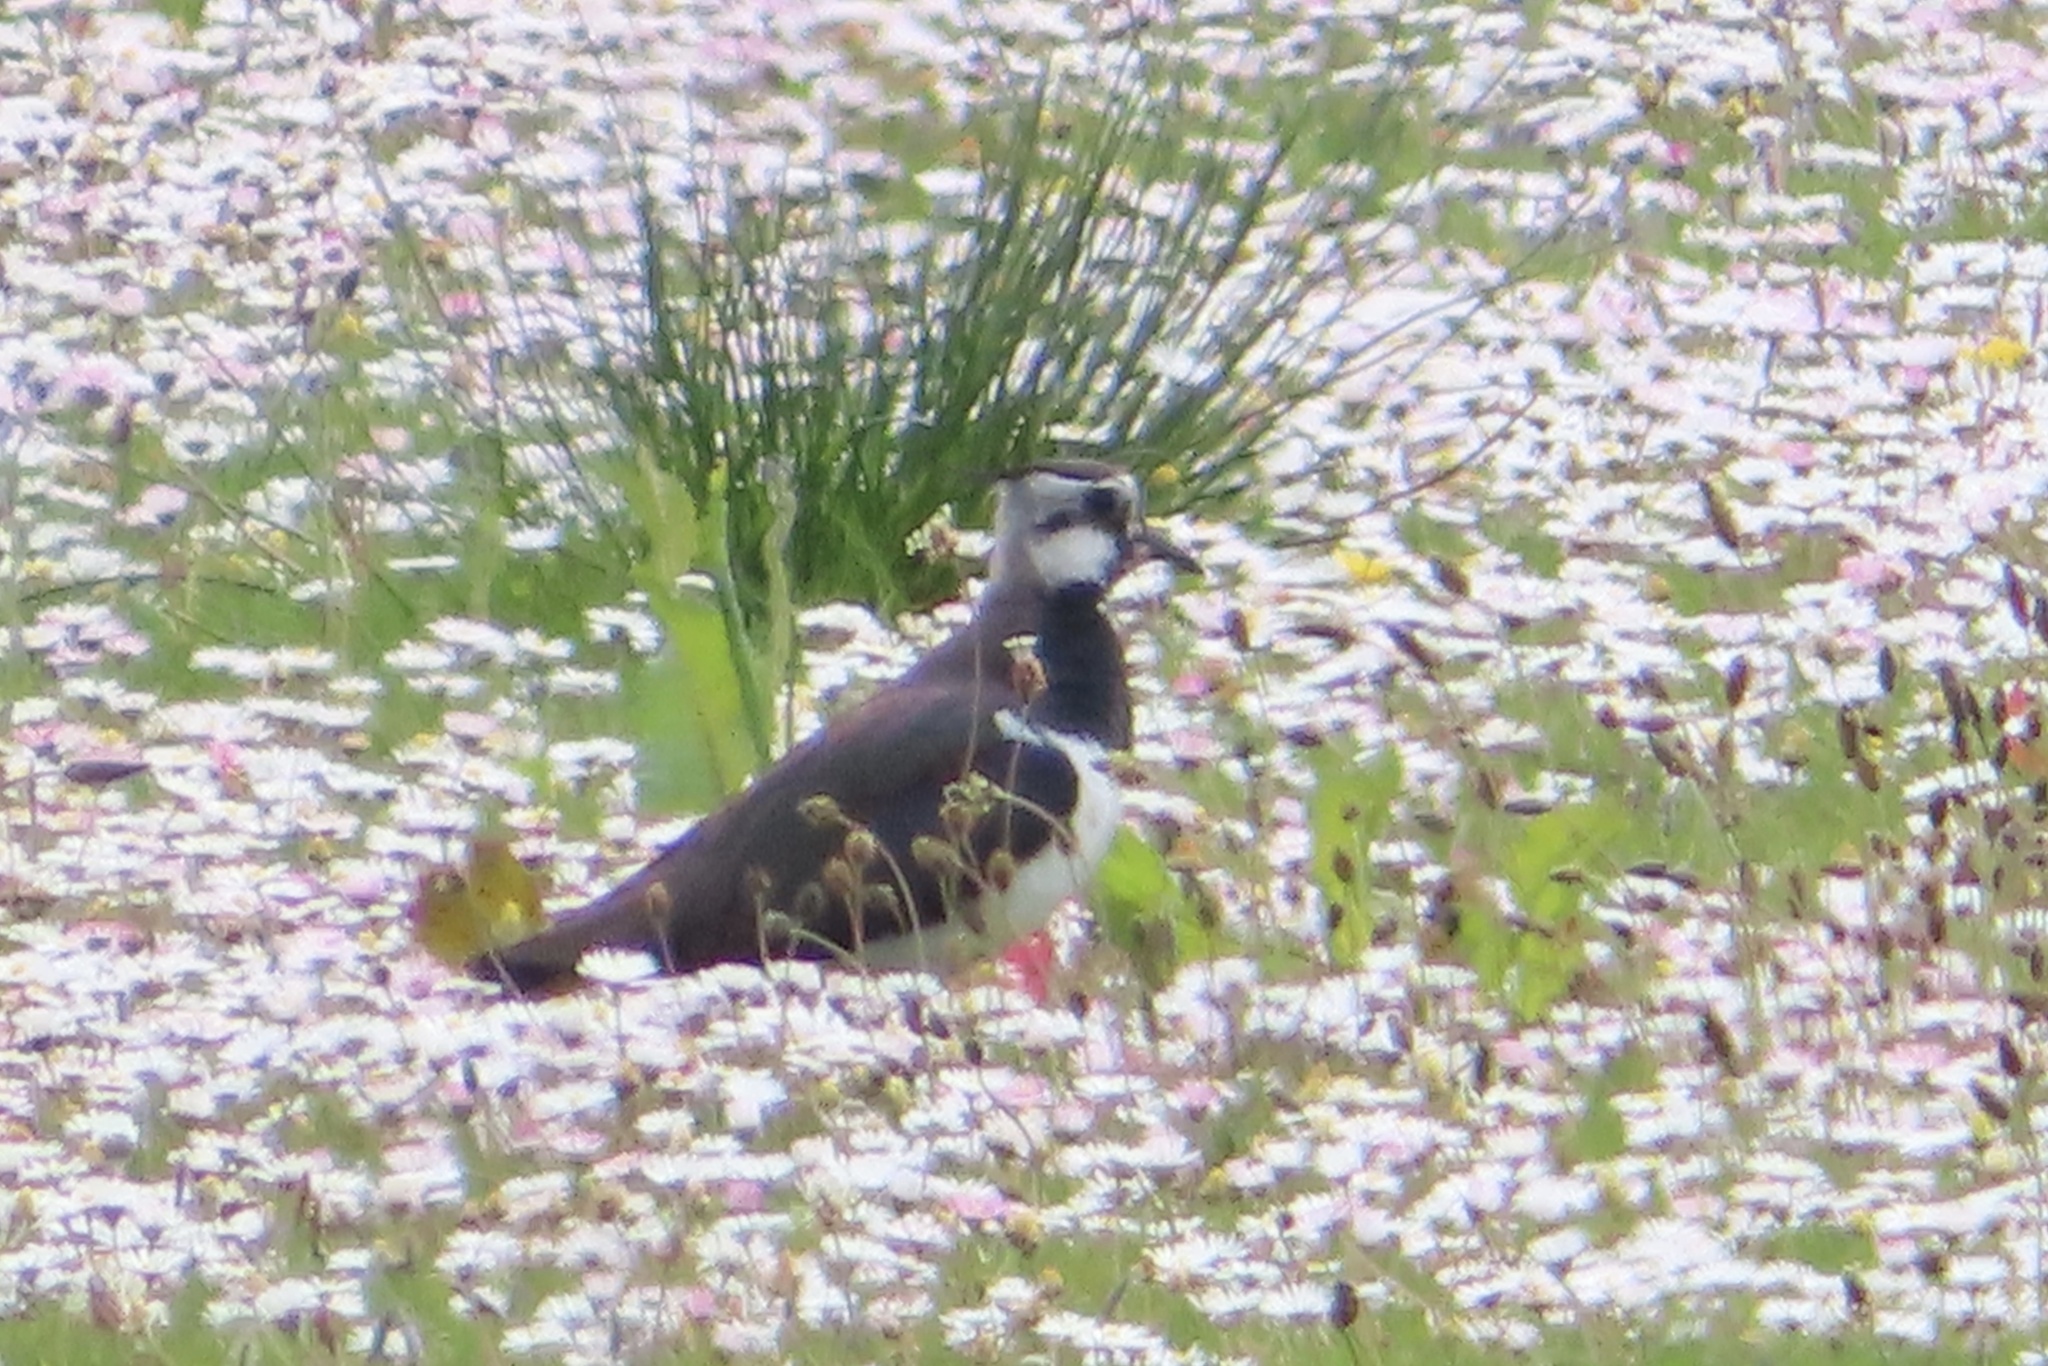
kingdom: Animalia
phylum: Chordata
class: Aves
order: Charadriiformes
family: Charadriidae
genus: Vanellus
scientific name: Vanellus vanellus
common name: Northern lapwing
